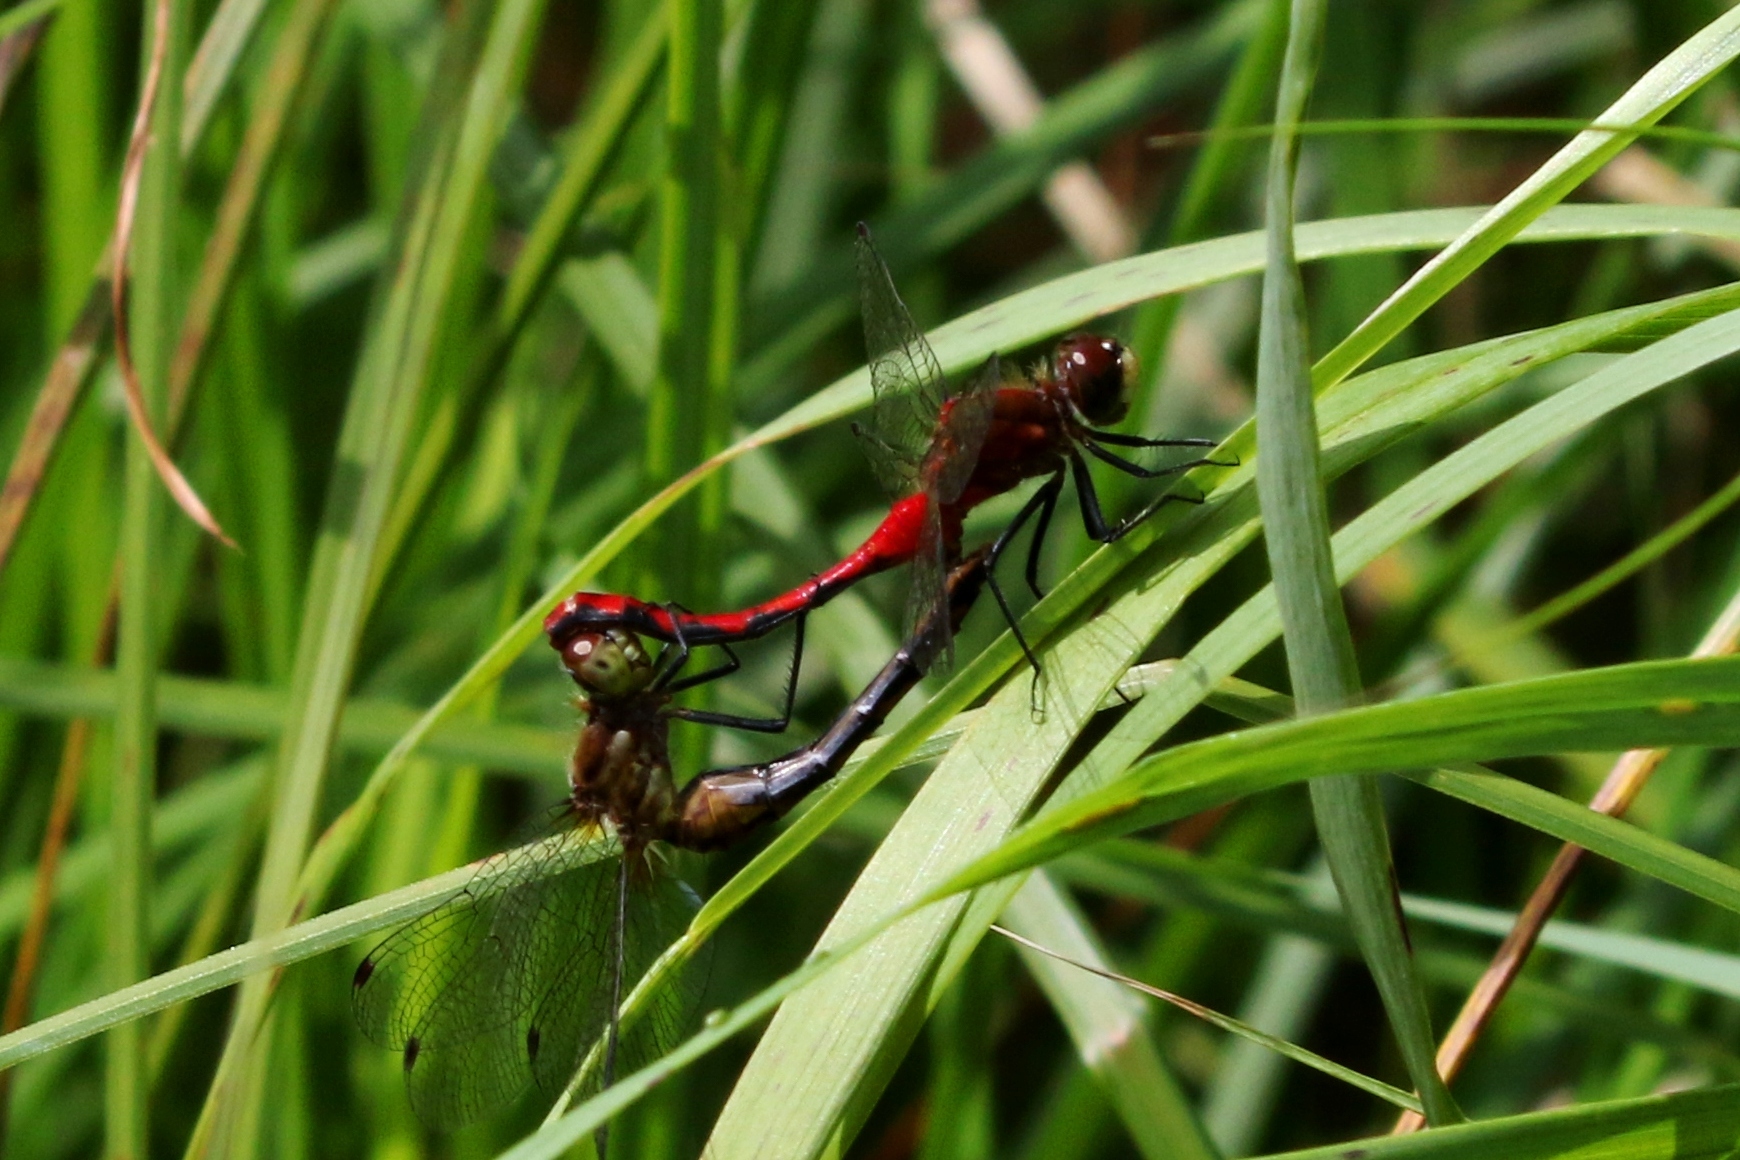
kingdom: Animalia
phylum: Arthropoda
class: Insecta
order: Odonata
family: Libellulidae
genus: Sympetrum
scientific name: Sympetrum obtrusum
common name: White-faced meadowhawk
